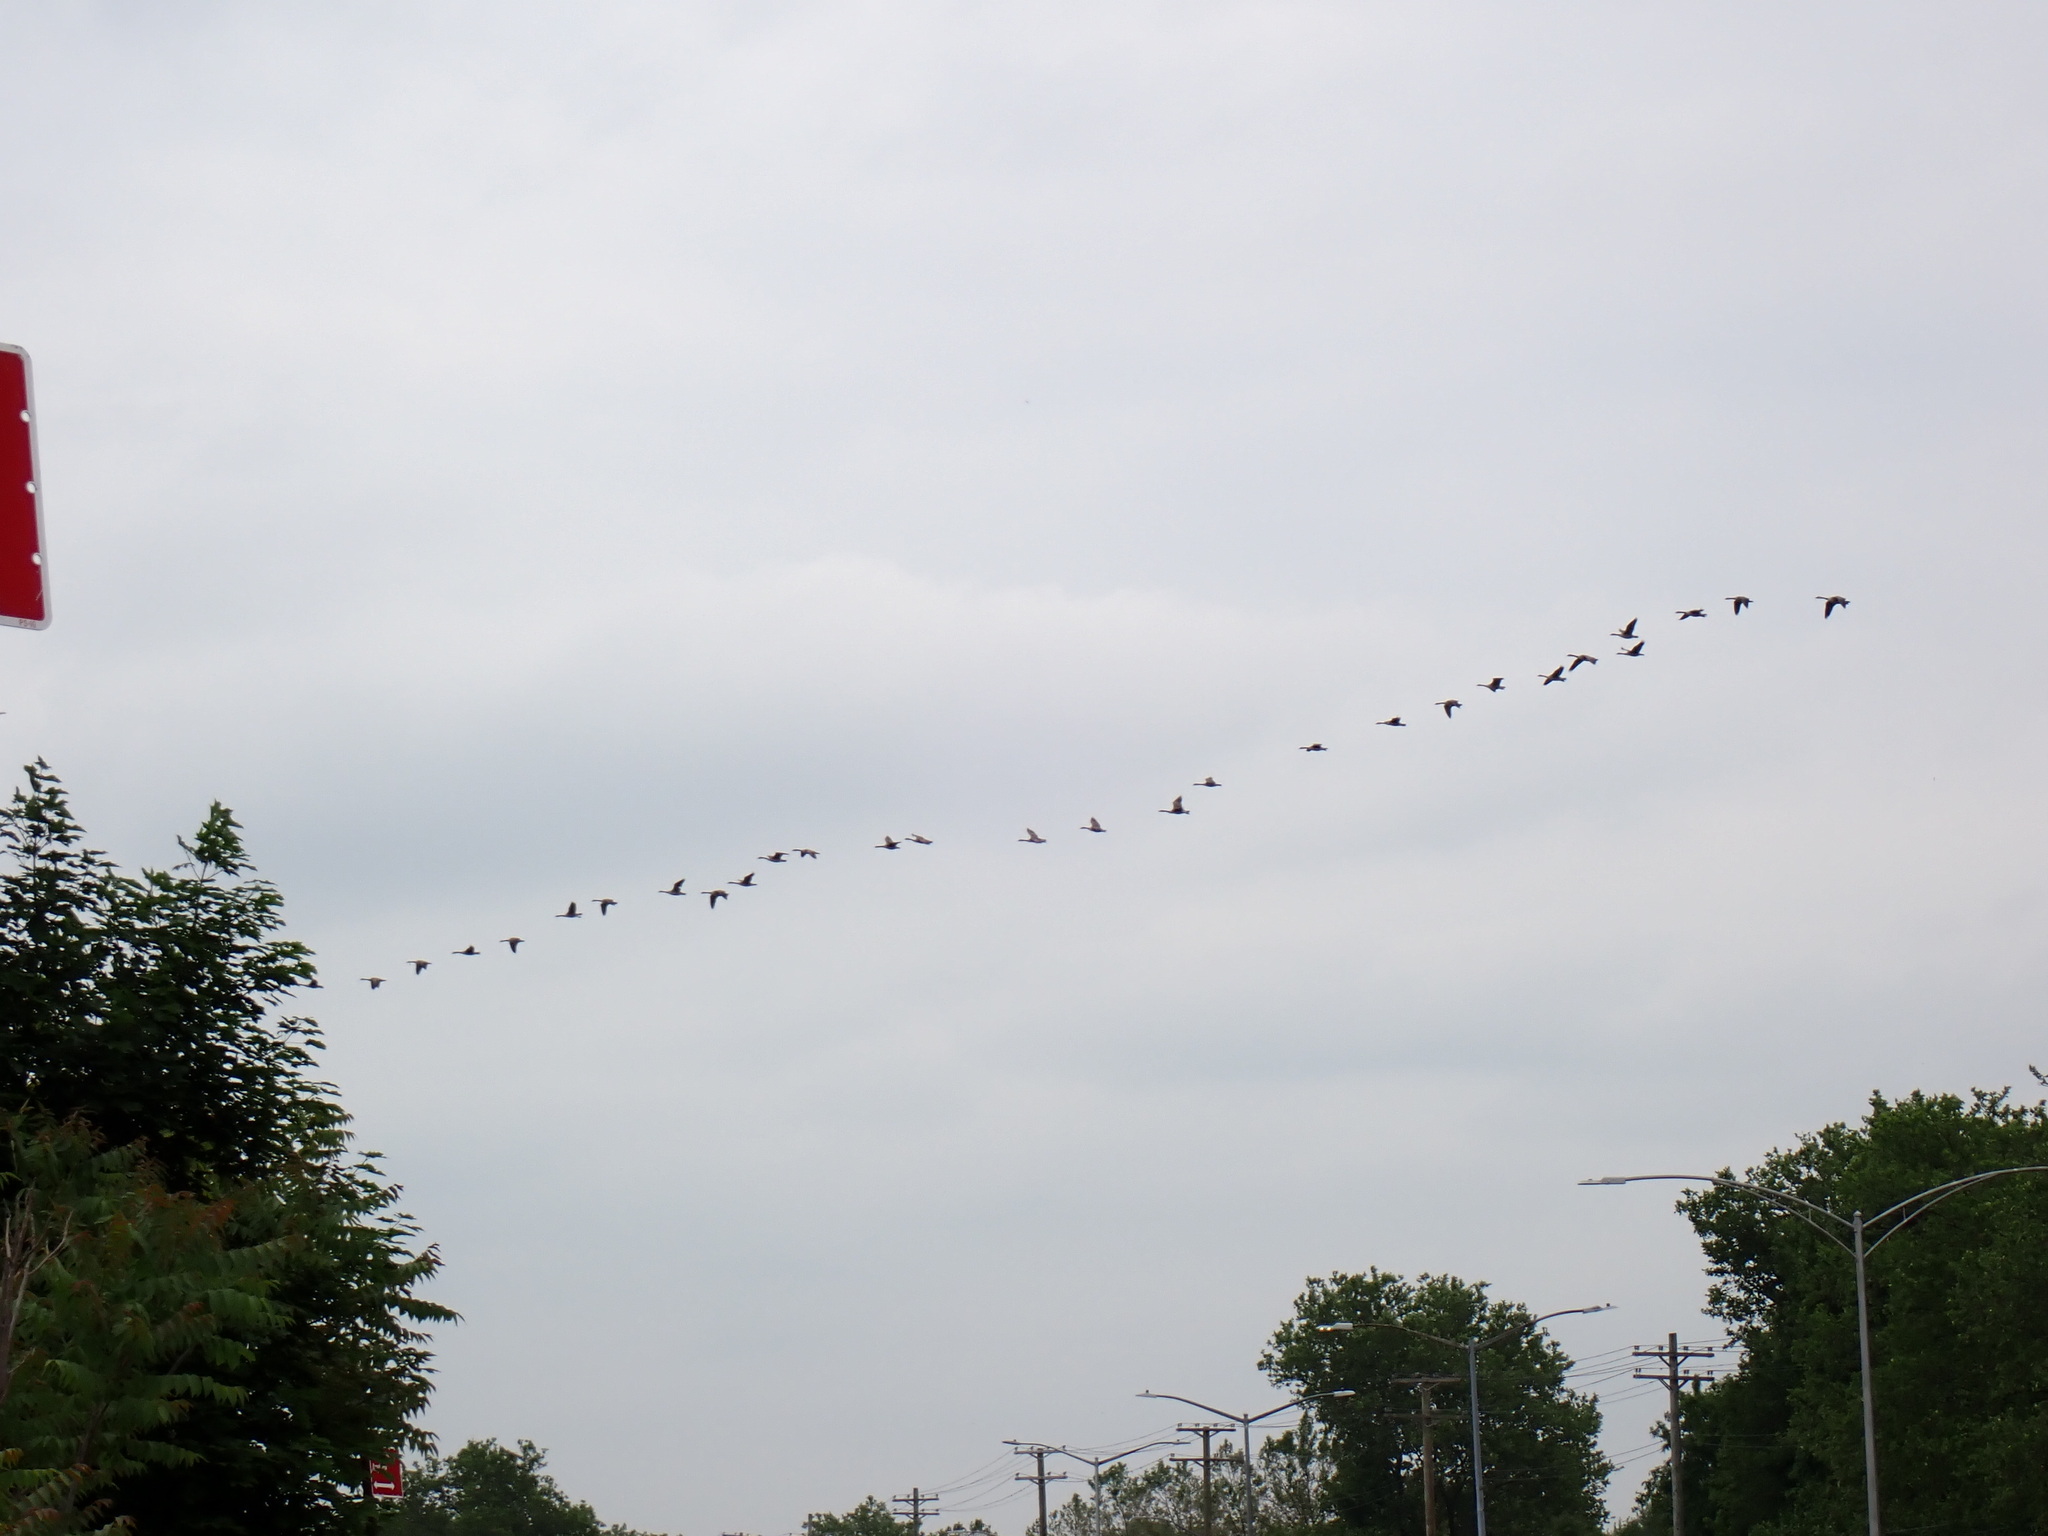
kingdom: Animalia
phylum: Chordata
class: Aves
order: Anseriformes
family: Anatidae
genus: Branta
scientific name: Branta canadensis
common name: Canada goose
